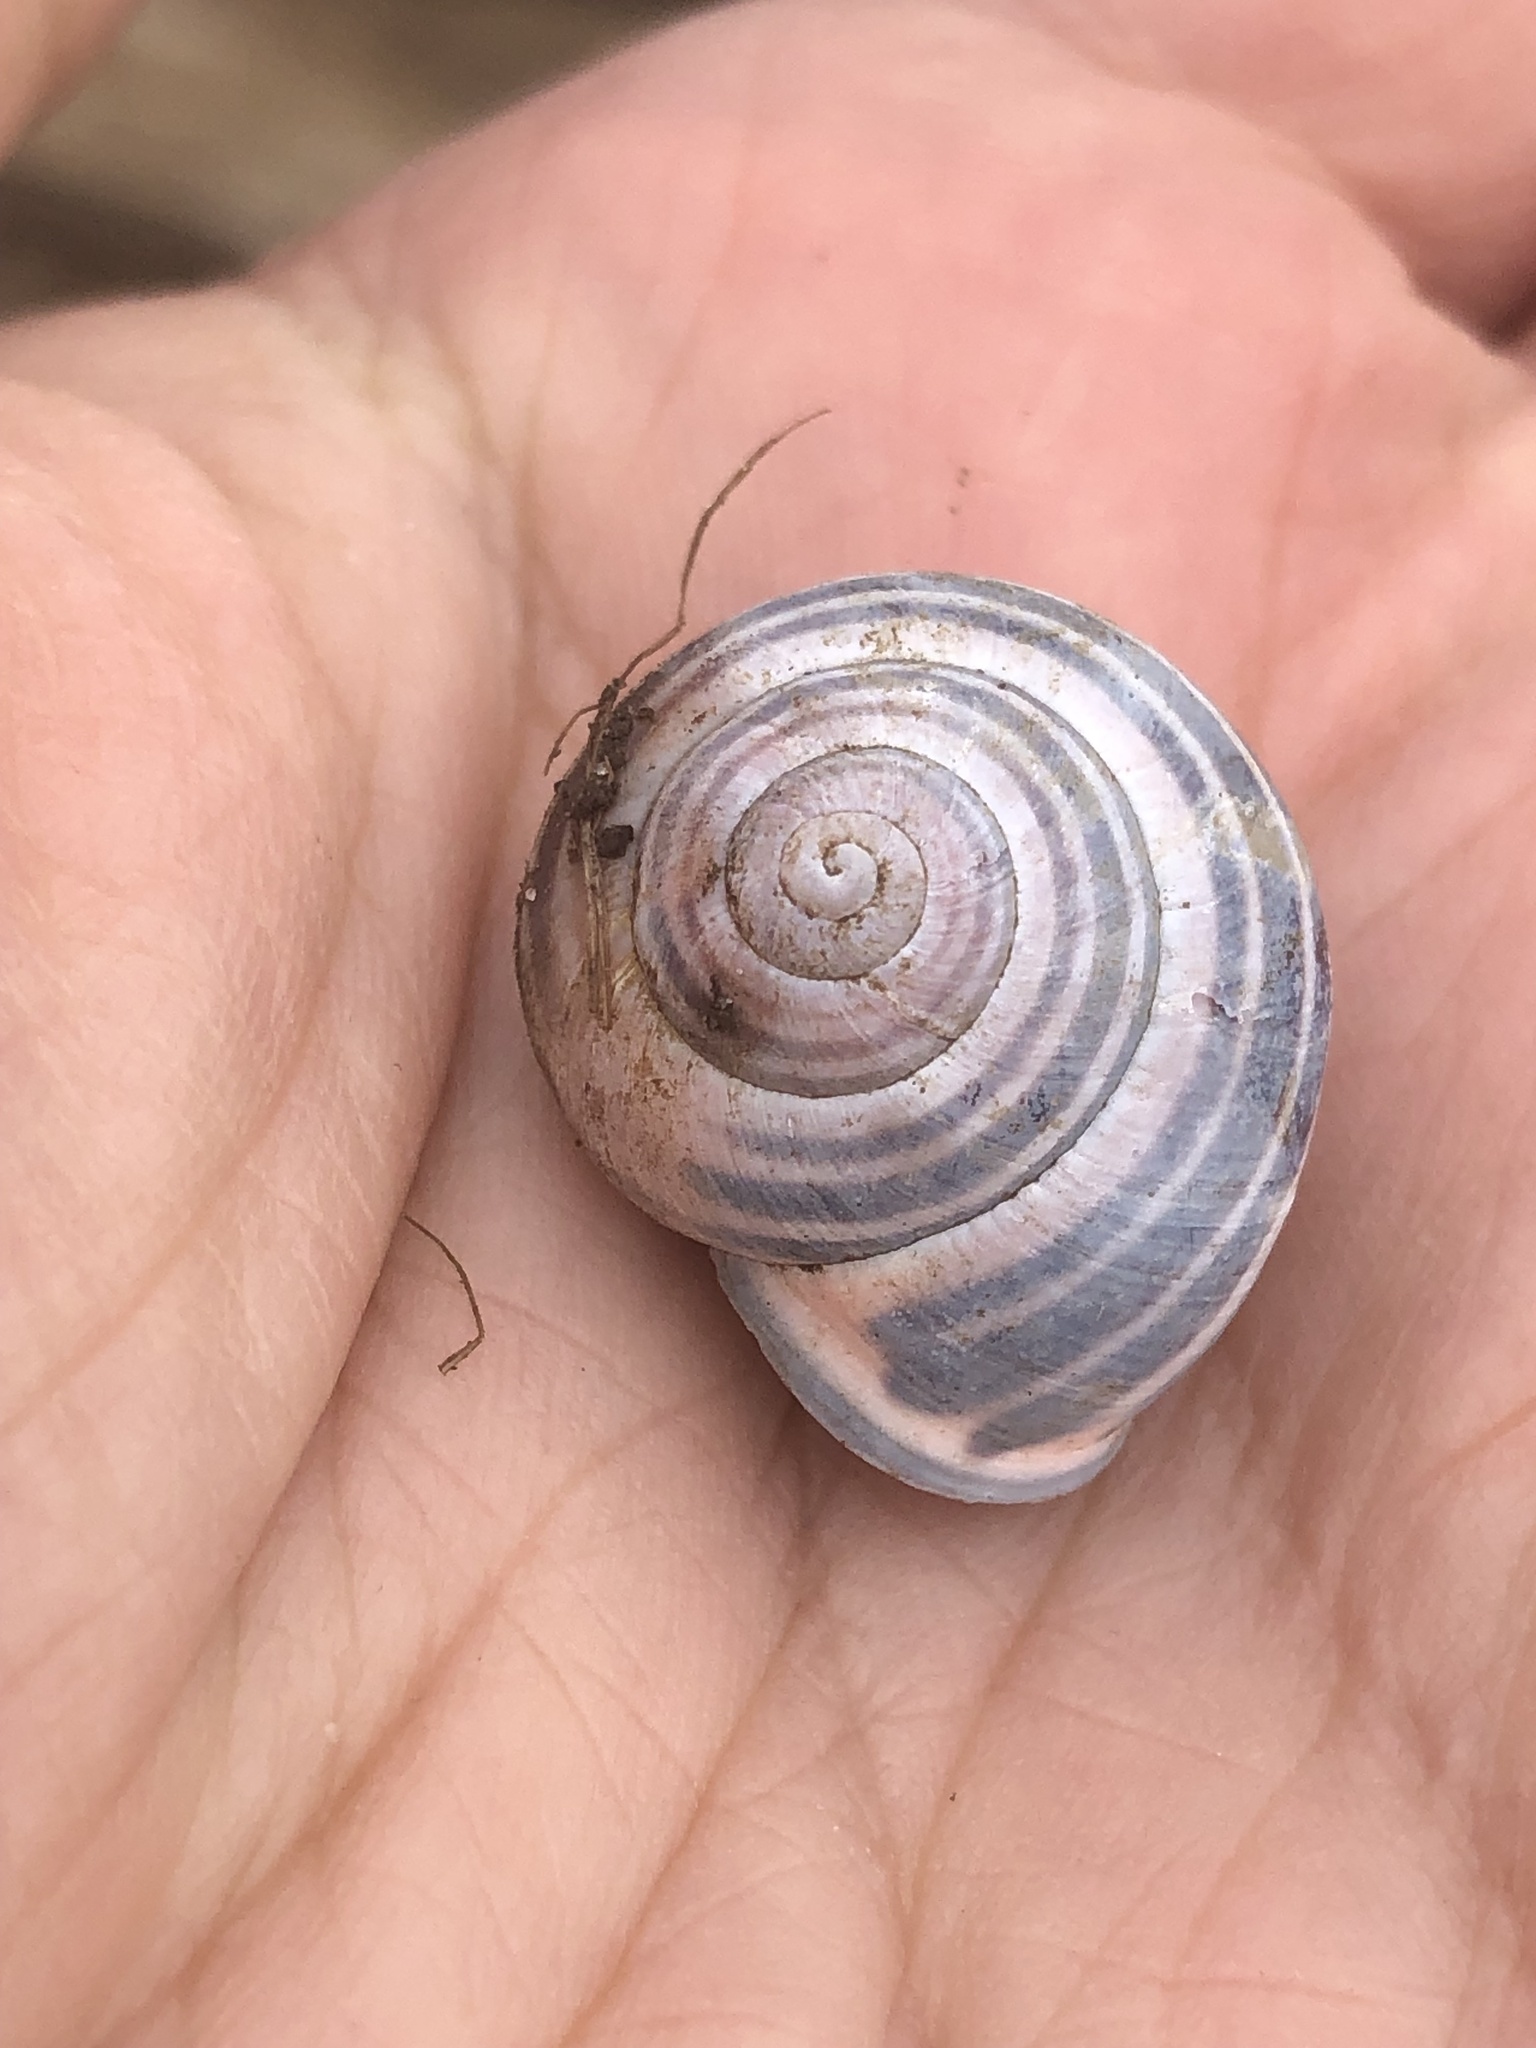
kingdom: Animalia
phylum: Mollusca
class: Gastropoda
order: Stylommatophora
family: Helicidae
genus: Cepaea
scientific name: Cepaea nemoralis
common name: Grovesnail
